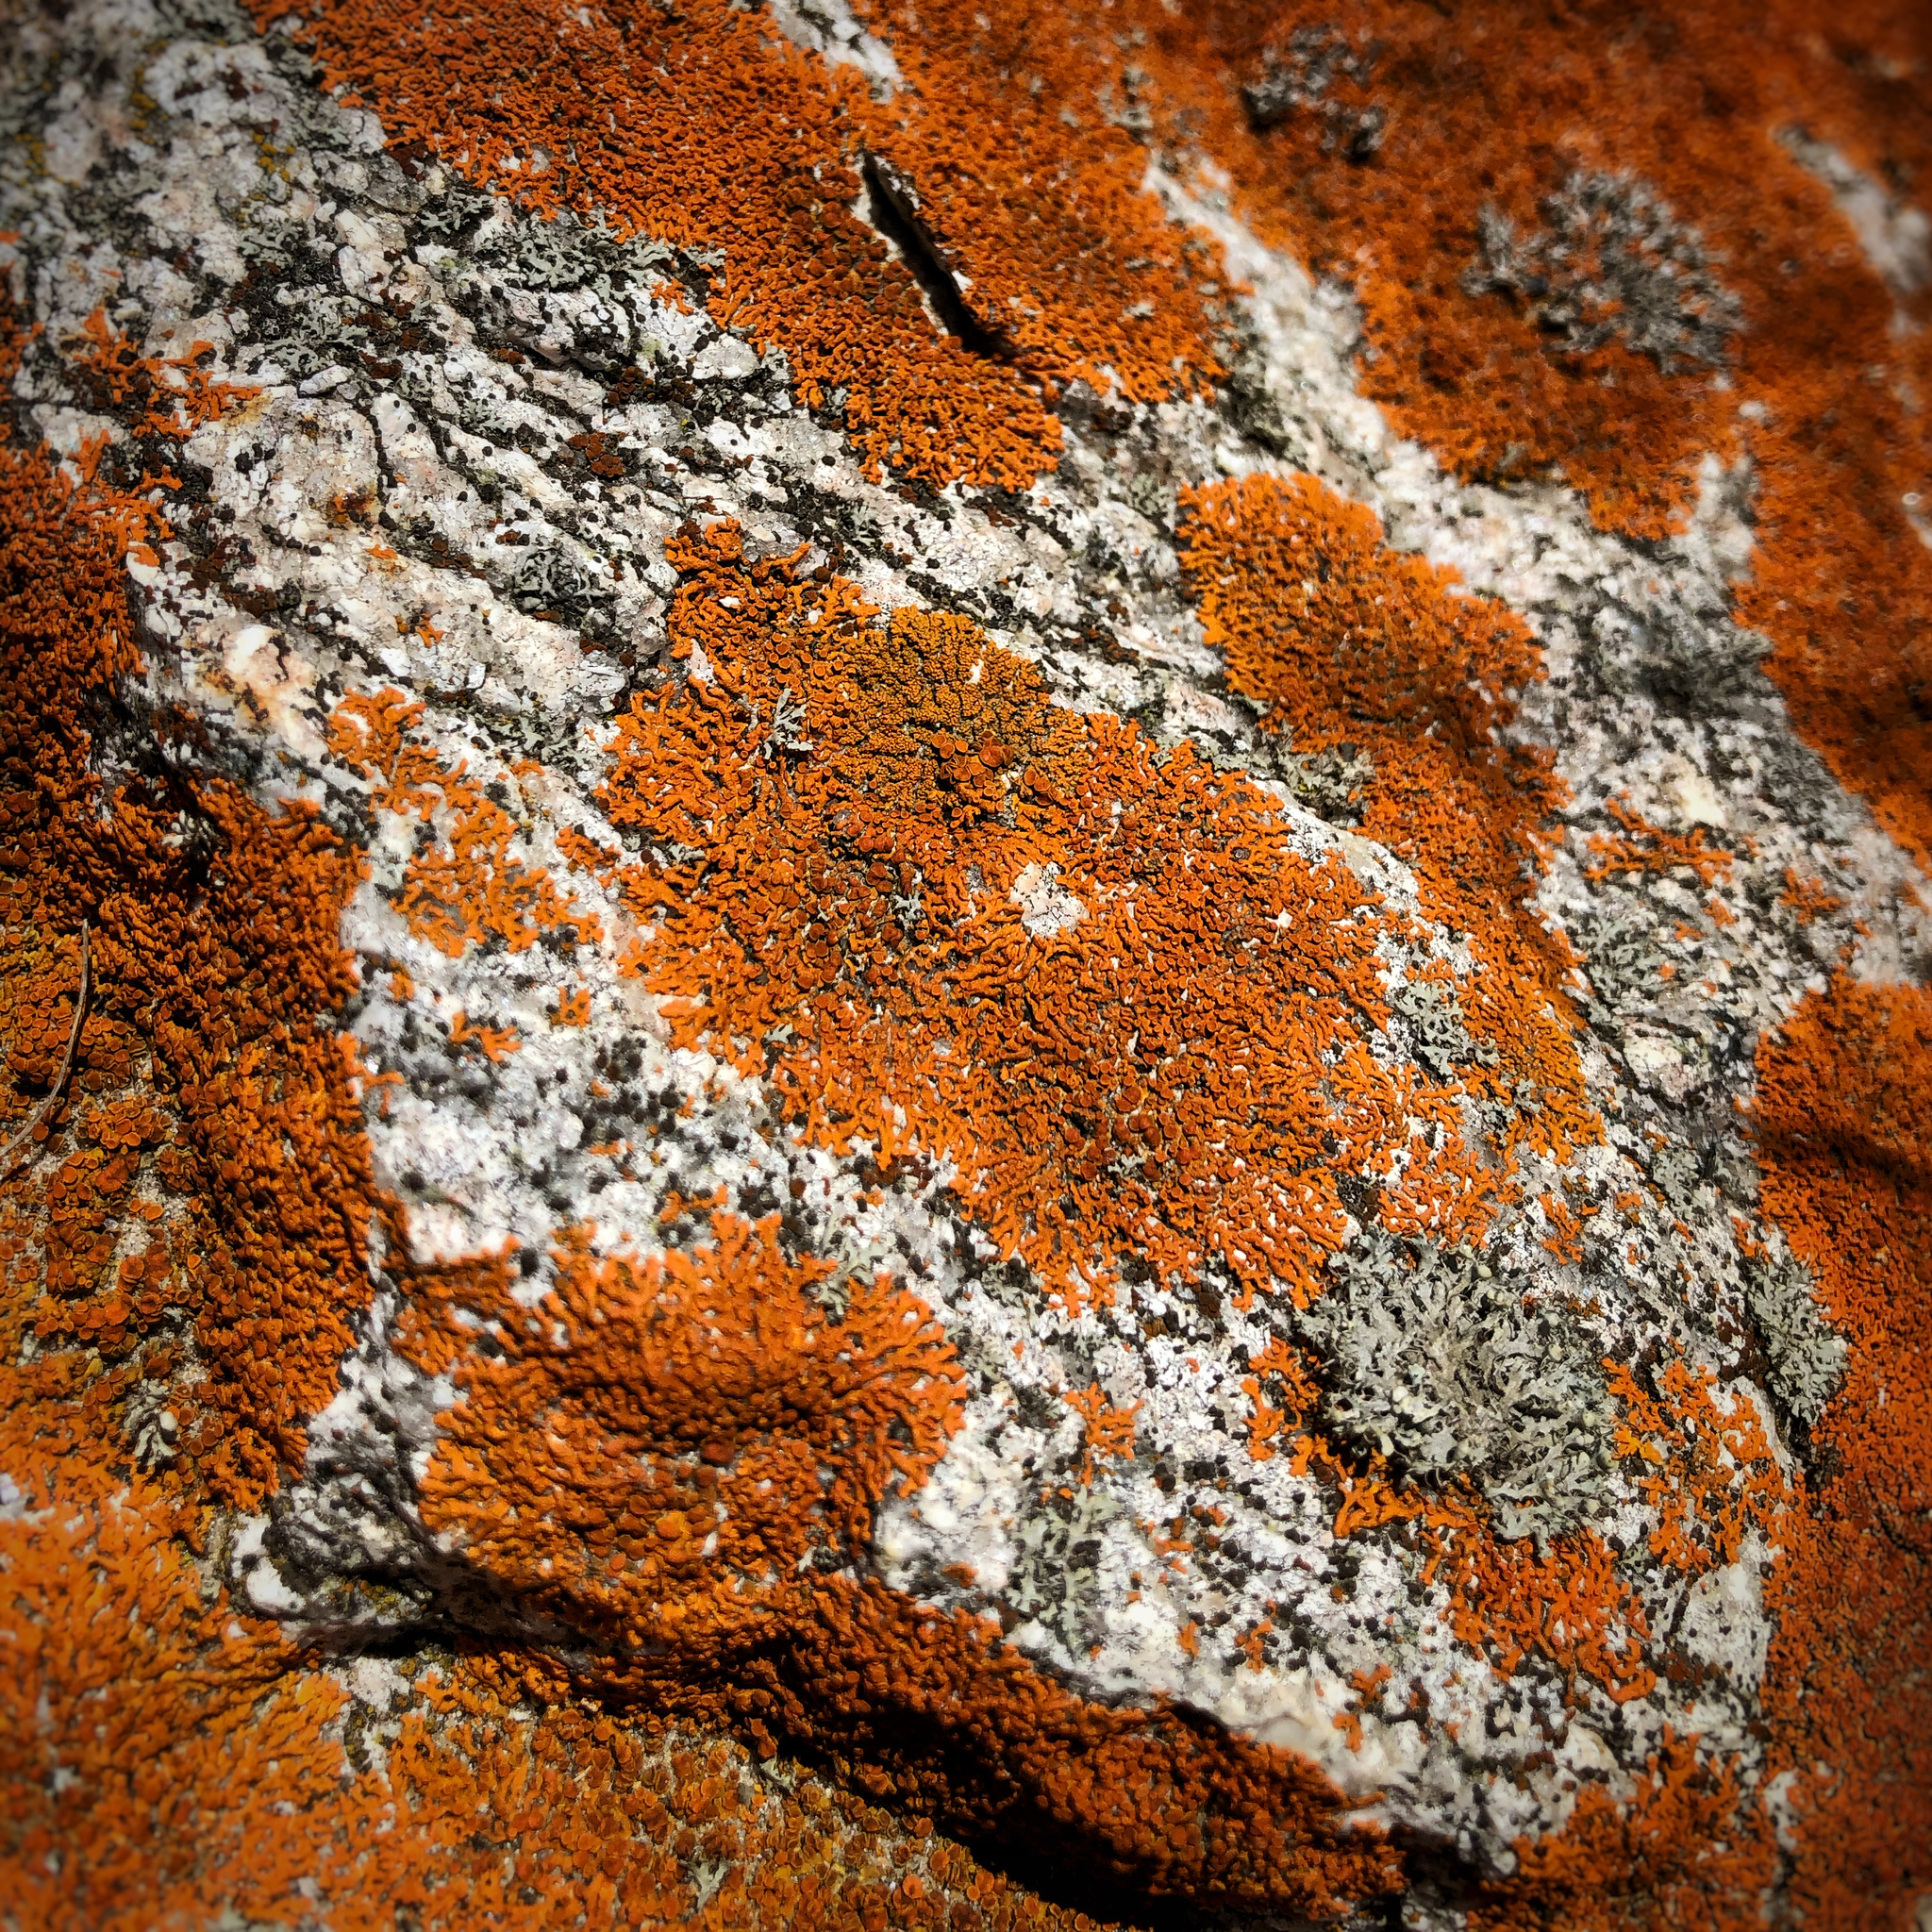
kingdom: Fungi
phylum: Ascomycota
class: Lecanoromycetes
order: Teloschistales
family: Teloschistaceae
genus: Xanthoria
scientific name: Xanthoria elegans
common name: Elegant sunburst lichen
